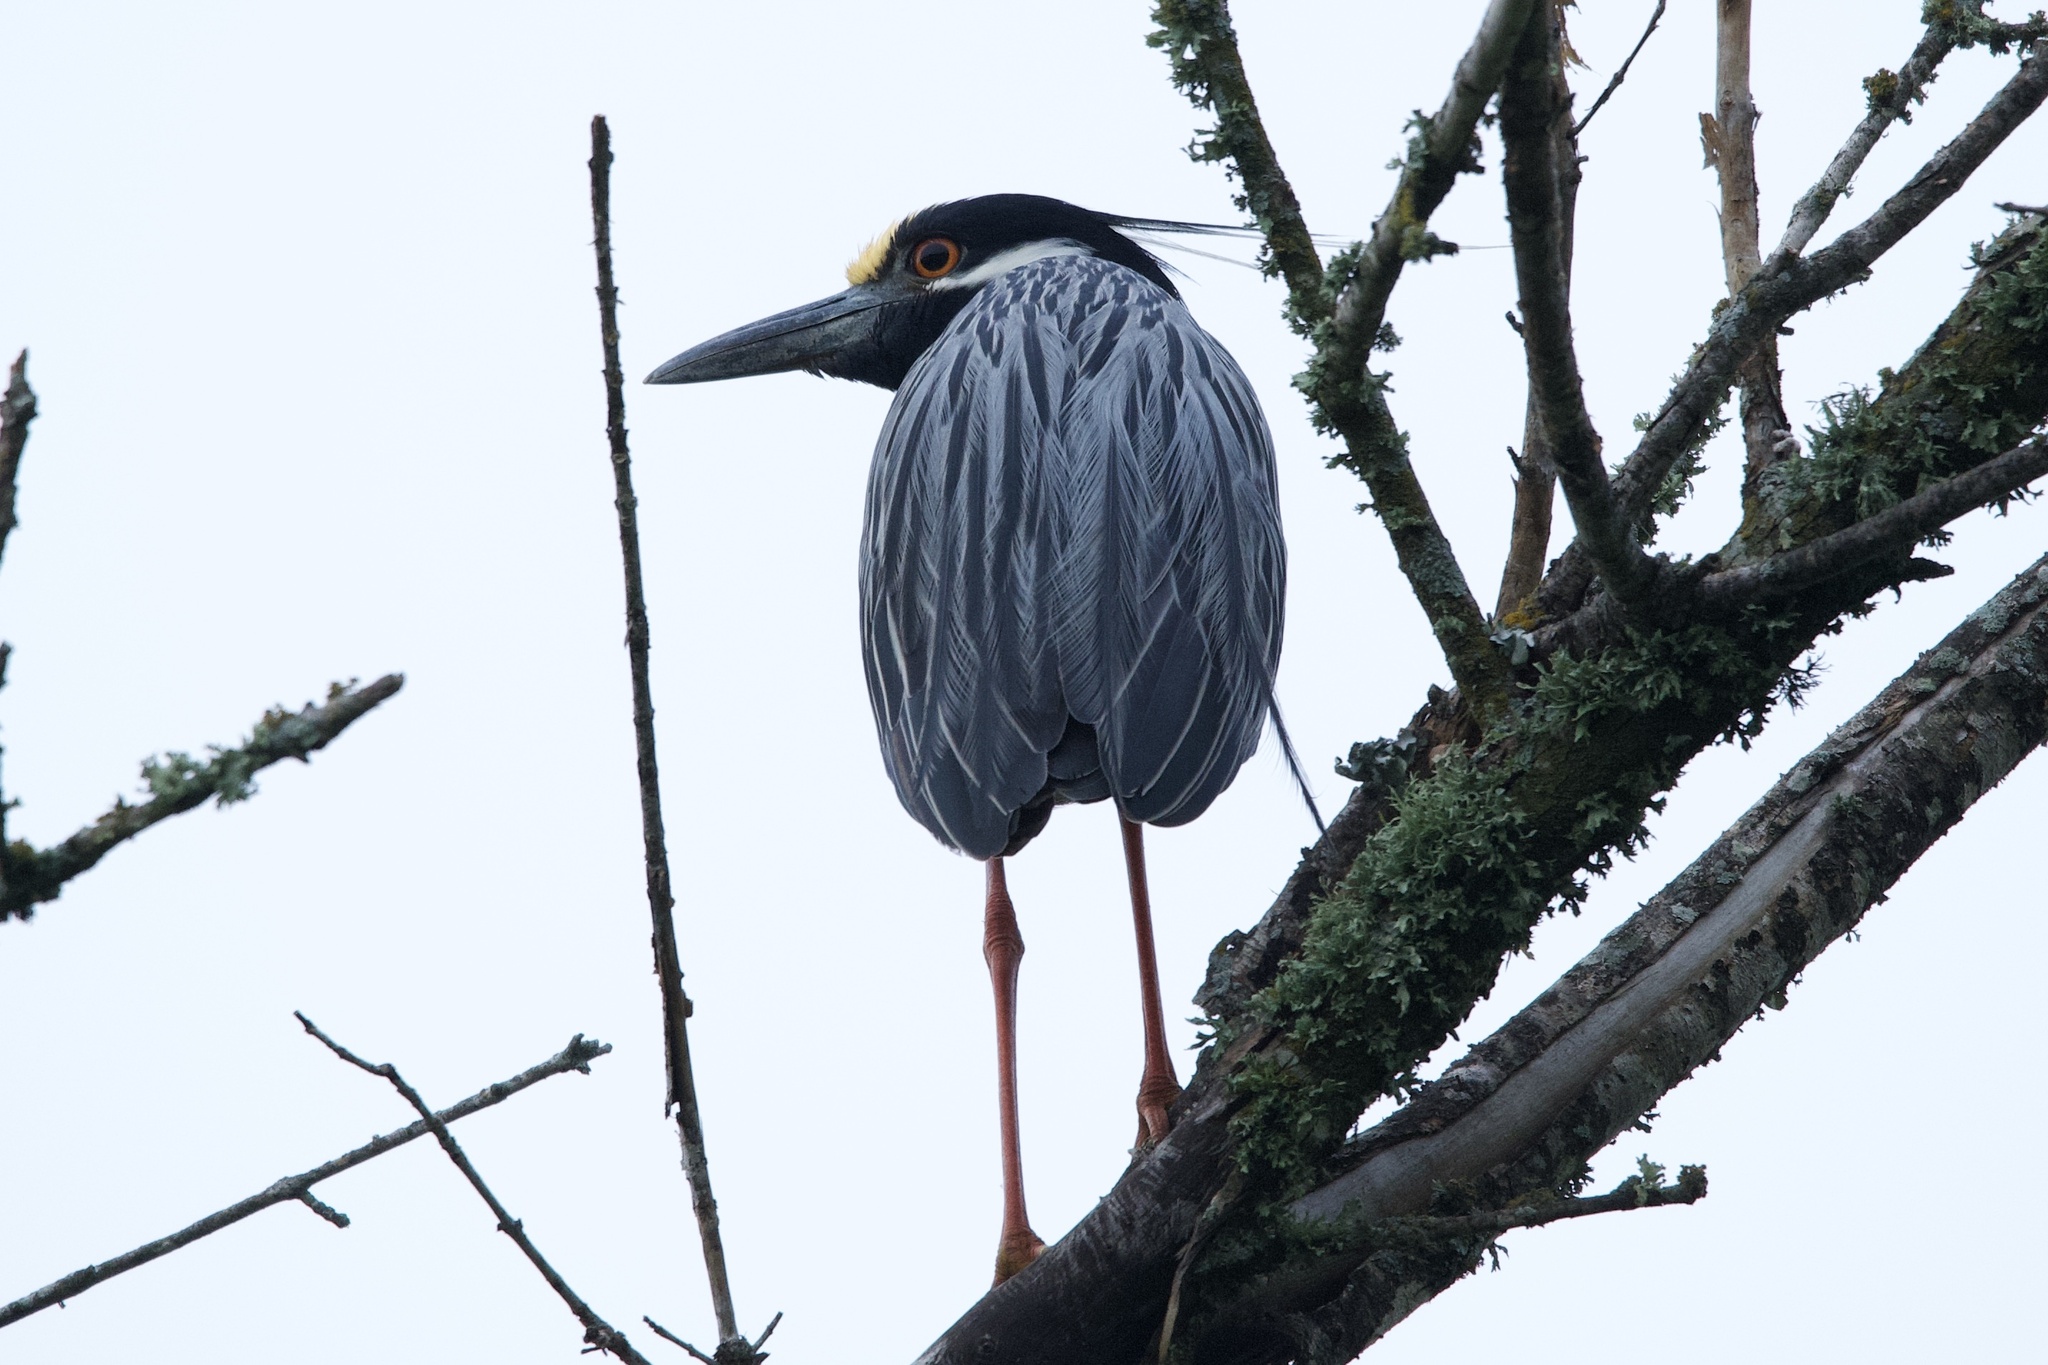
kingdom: Animalia
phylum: Chordata
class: Aves
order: Pelecaniformes
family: Ardeidae
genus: Nyctanassa
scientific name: Nyctanassa violacea
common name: Yellow-crowned night heron
